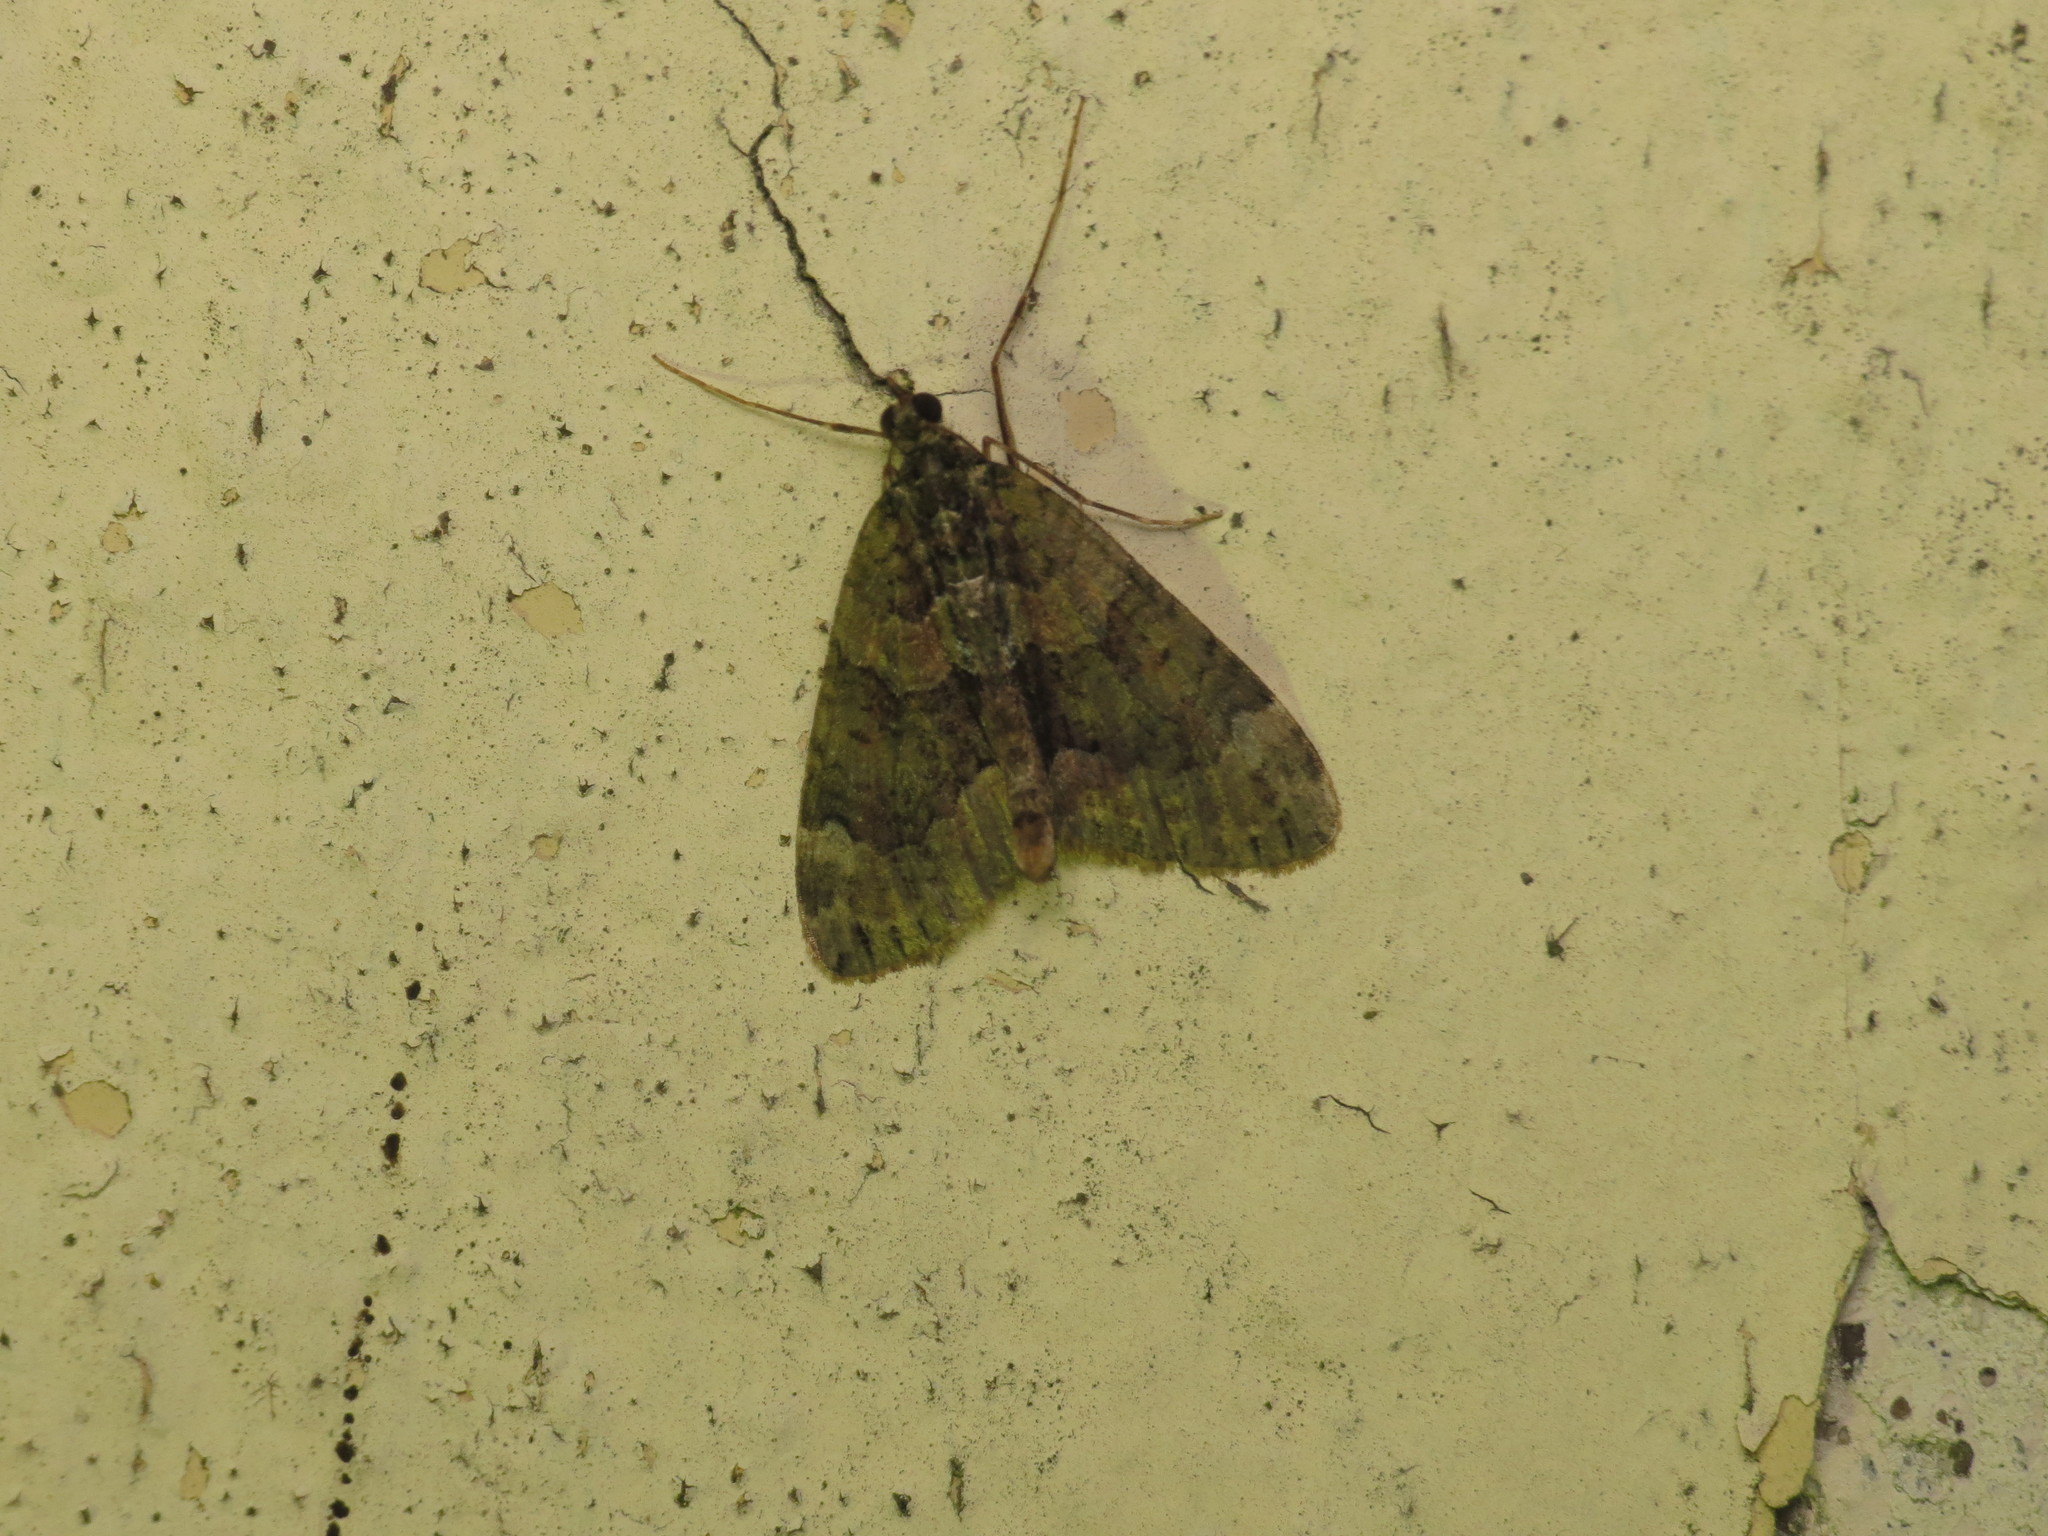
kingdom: Animalia
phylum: Arthropoda
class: Insecta
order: Lepidoptera
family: Geometridae
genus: Chloroclysta
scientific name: Chloroclysta siterata
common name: Red-green carpet
